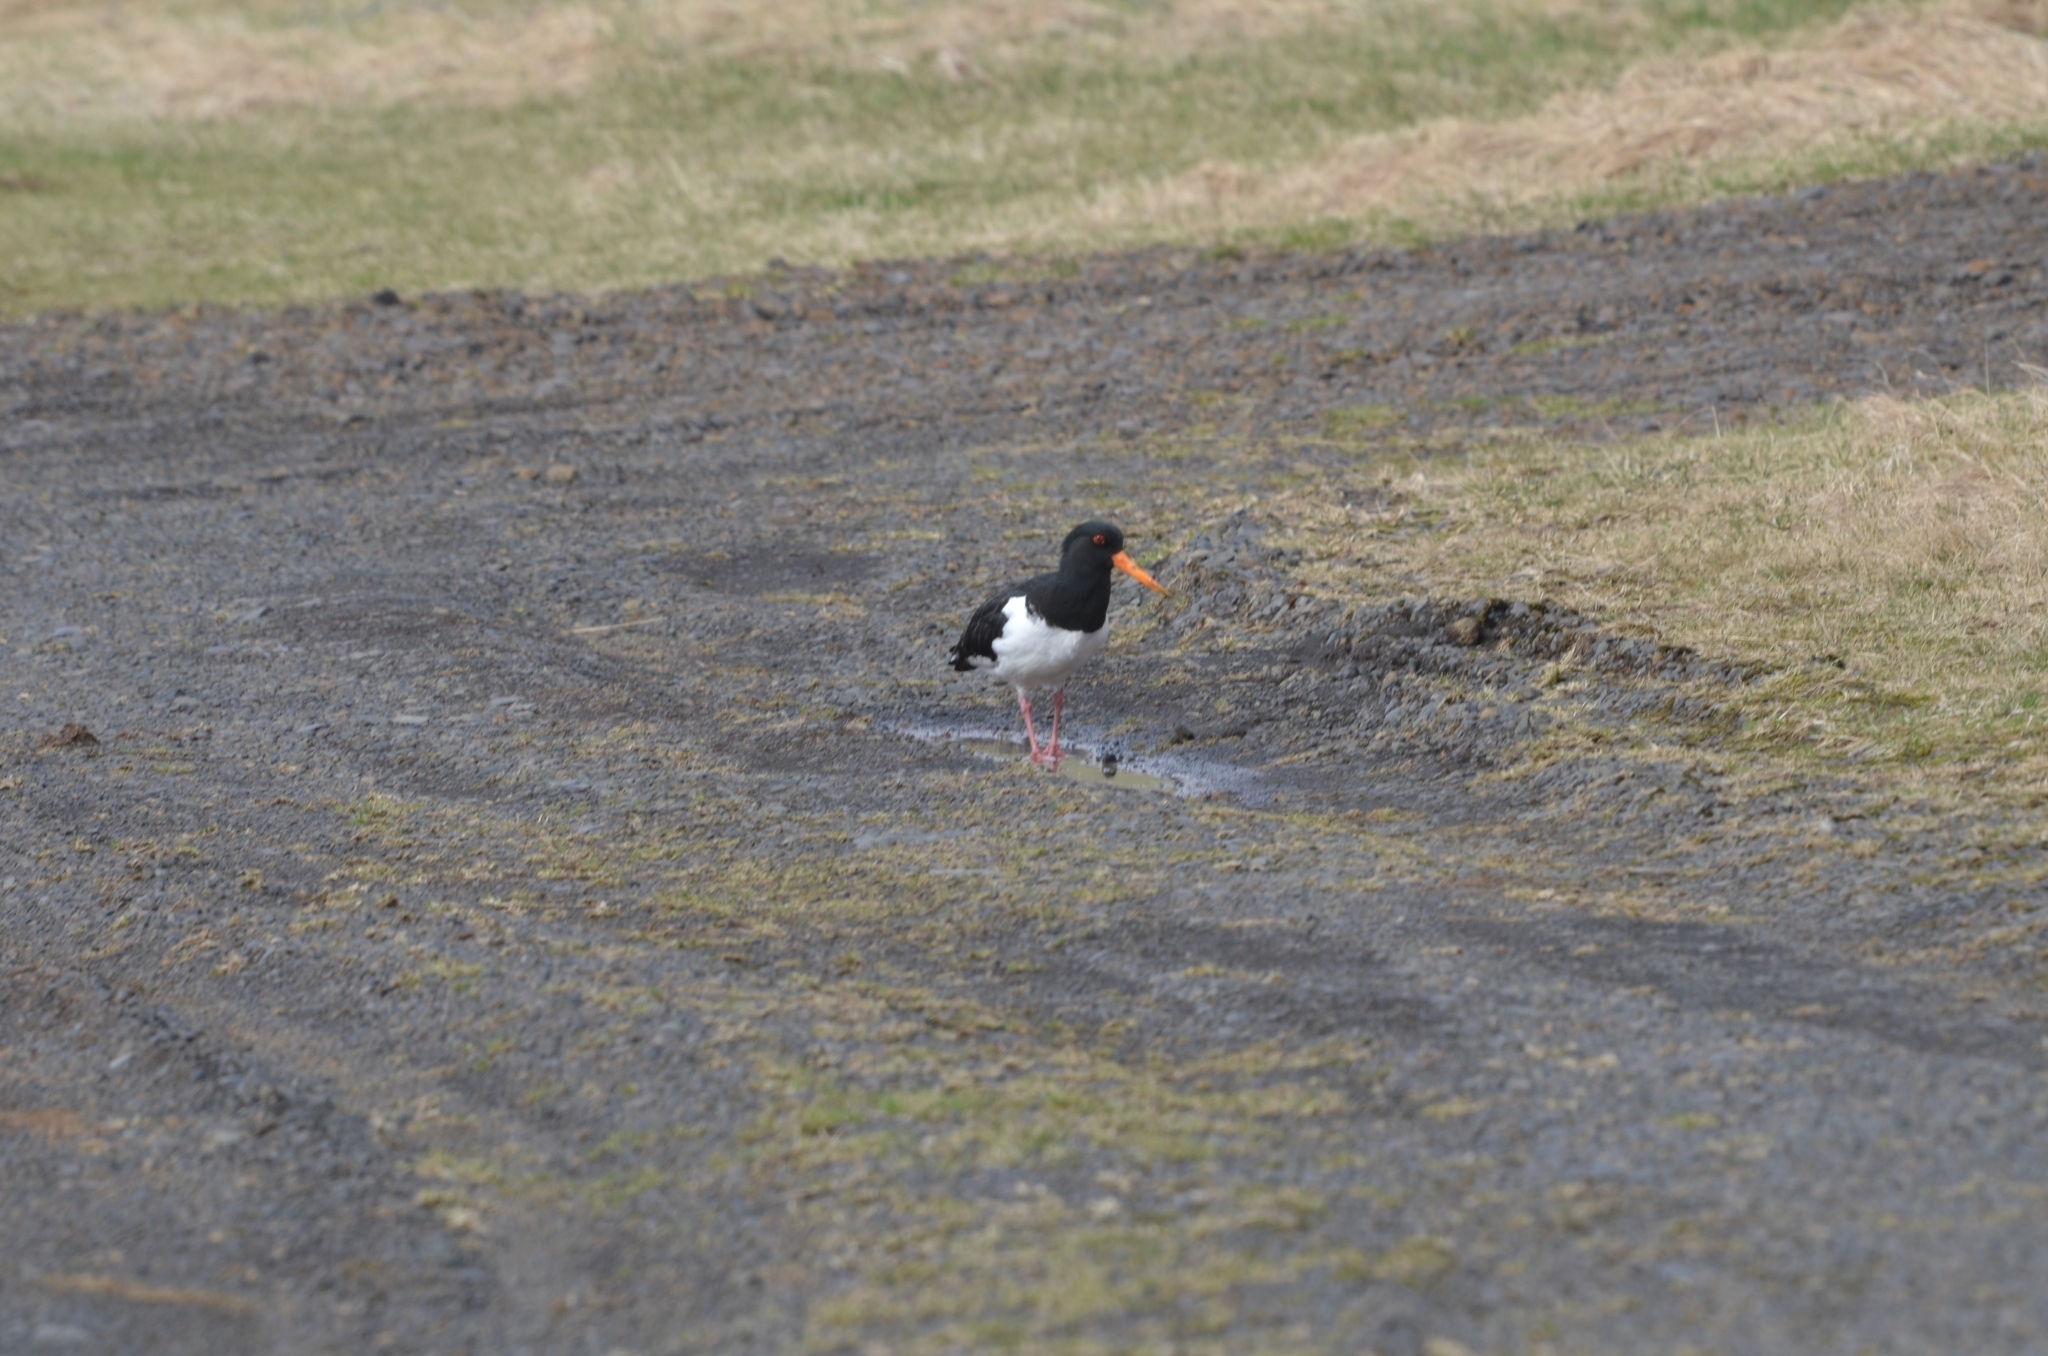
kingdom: Animalia
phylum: Chordata
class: Aves
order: Charadriiformes
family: Haematopodidae
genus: Haematopus
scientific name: Haematopus ostralegus
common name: Eurasian oystercatcher
